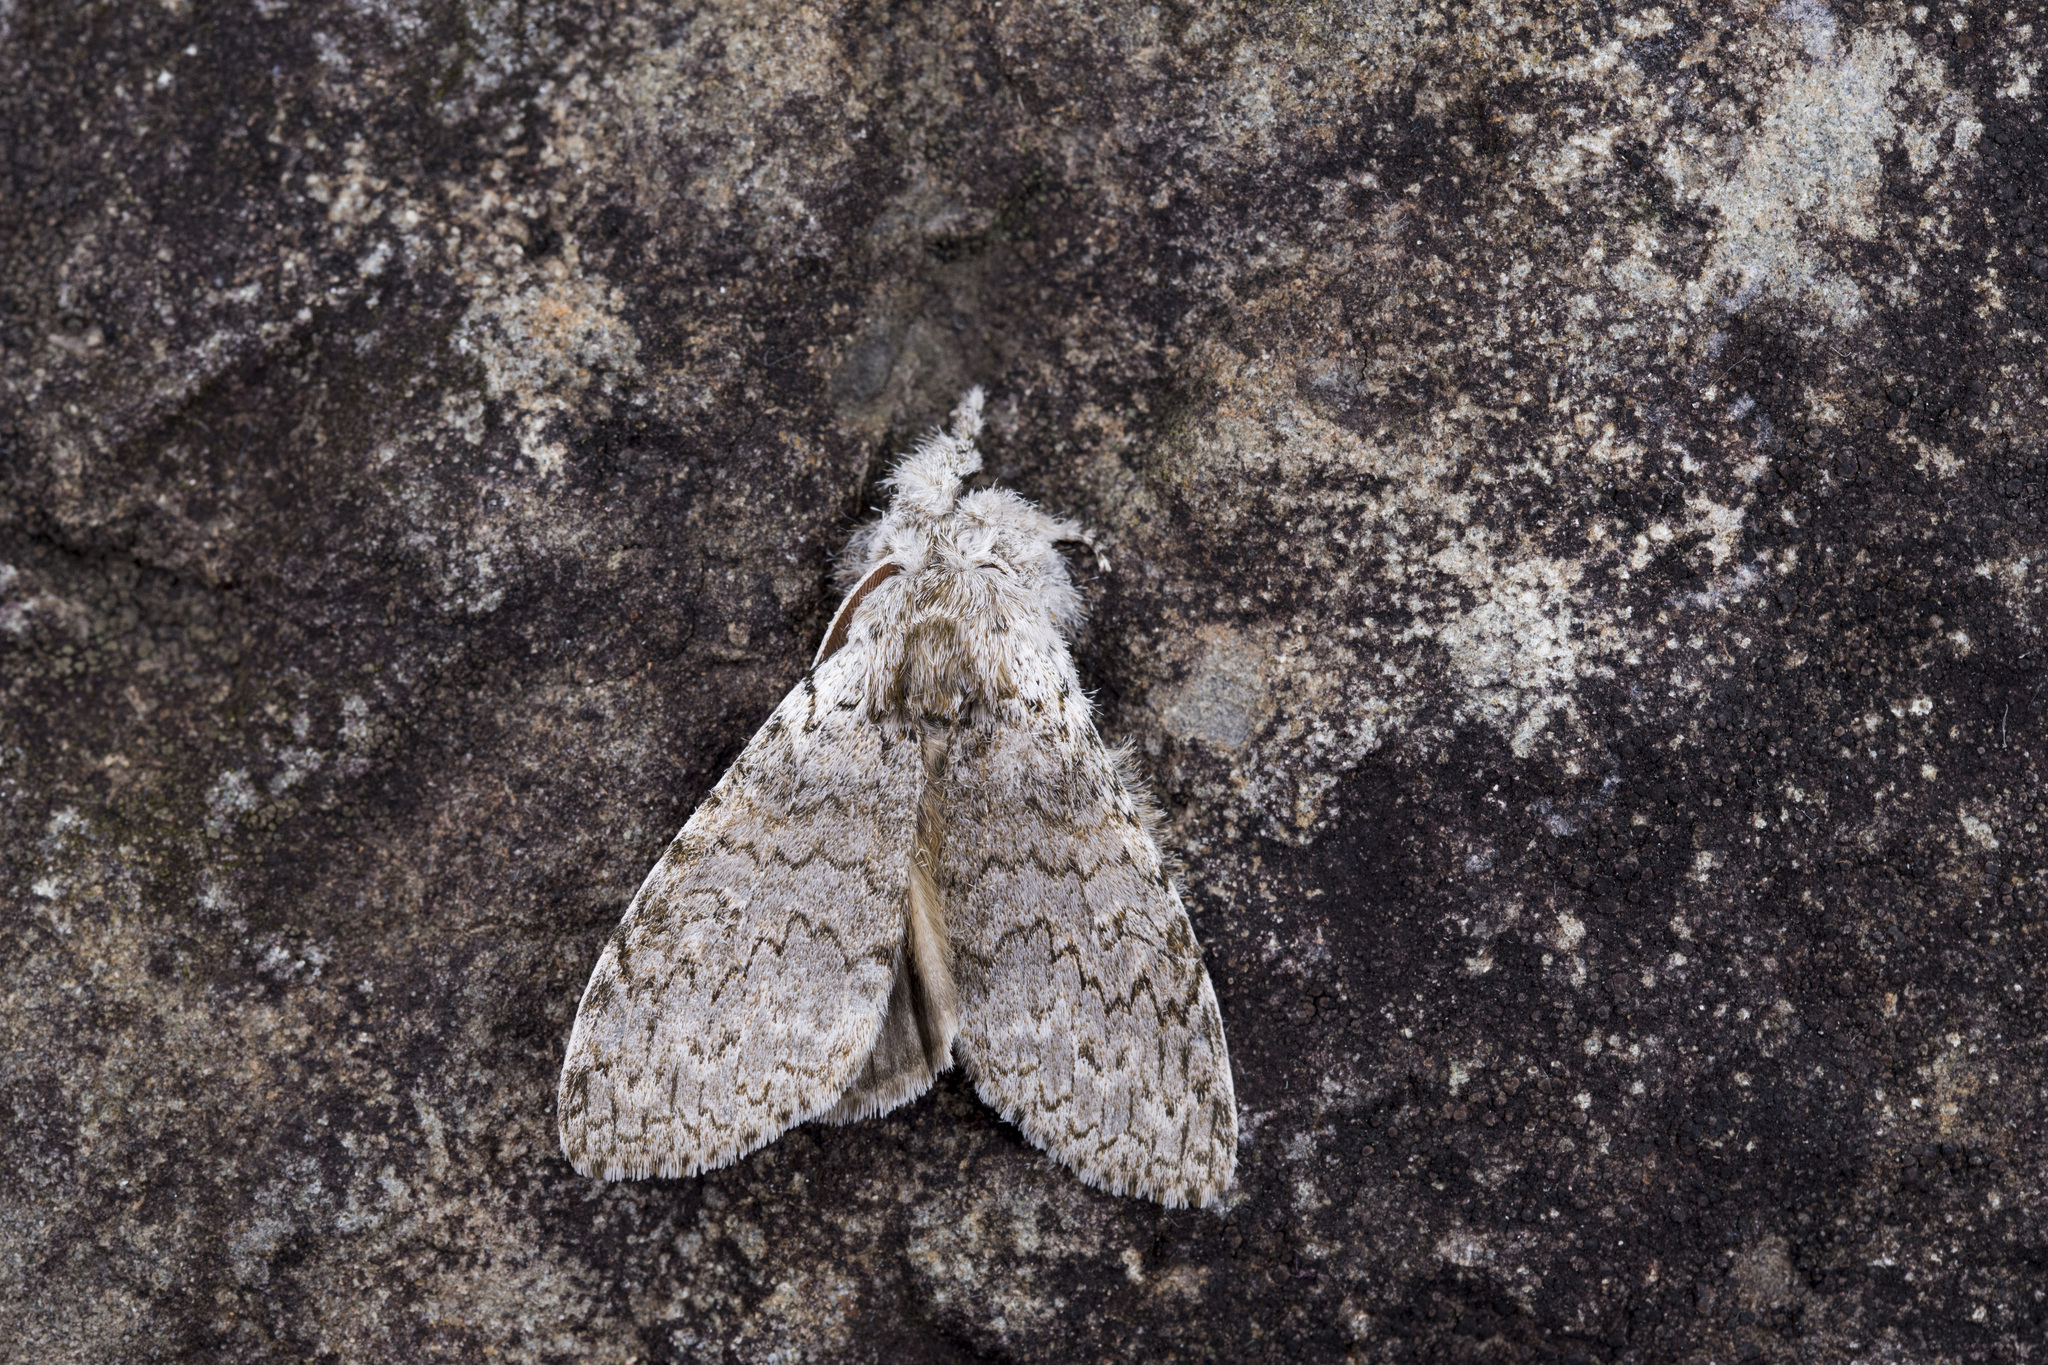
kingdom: Animalia
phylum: Arthropoda
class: Insecta
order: Lepidoptera
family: Erebidae
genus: Calliteara
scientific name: Calliteara arizana
